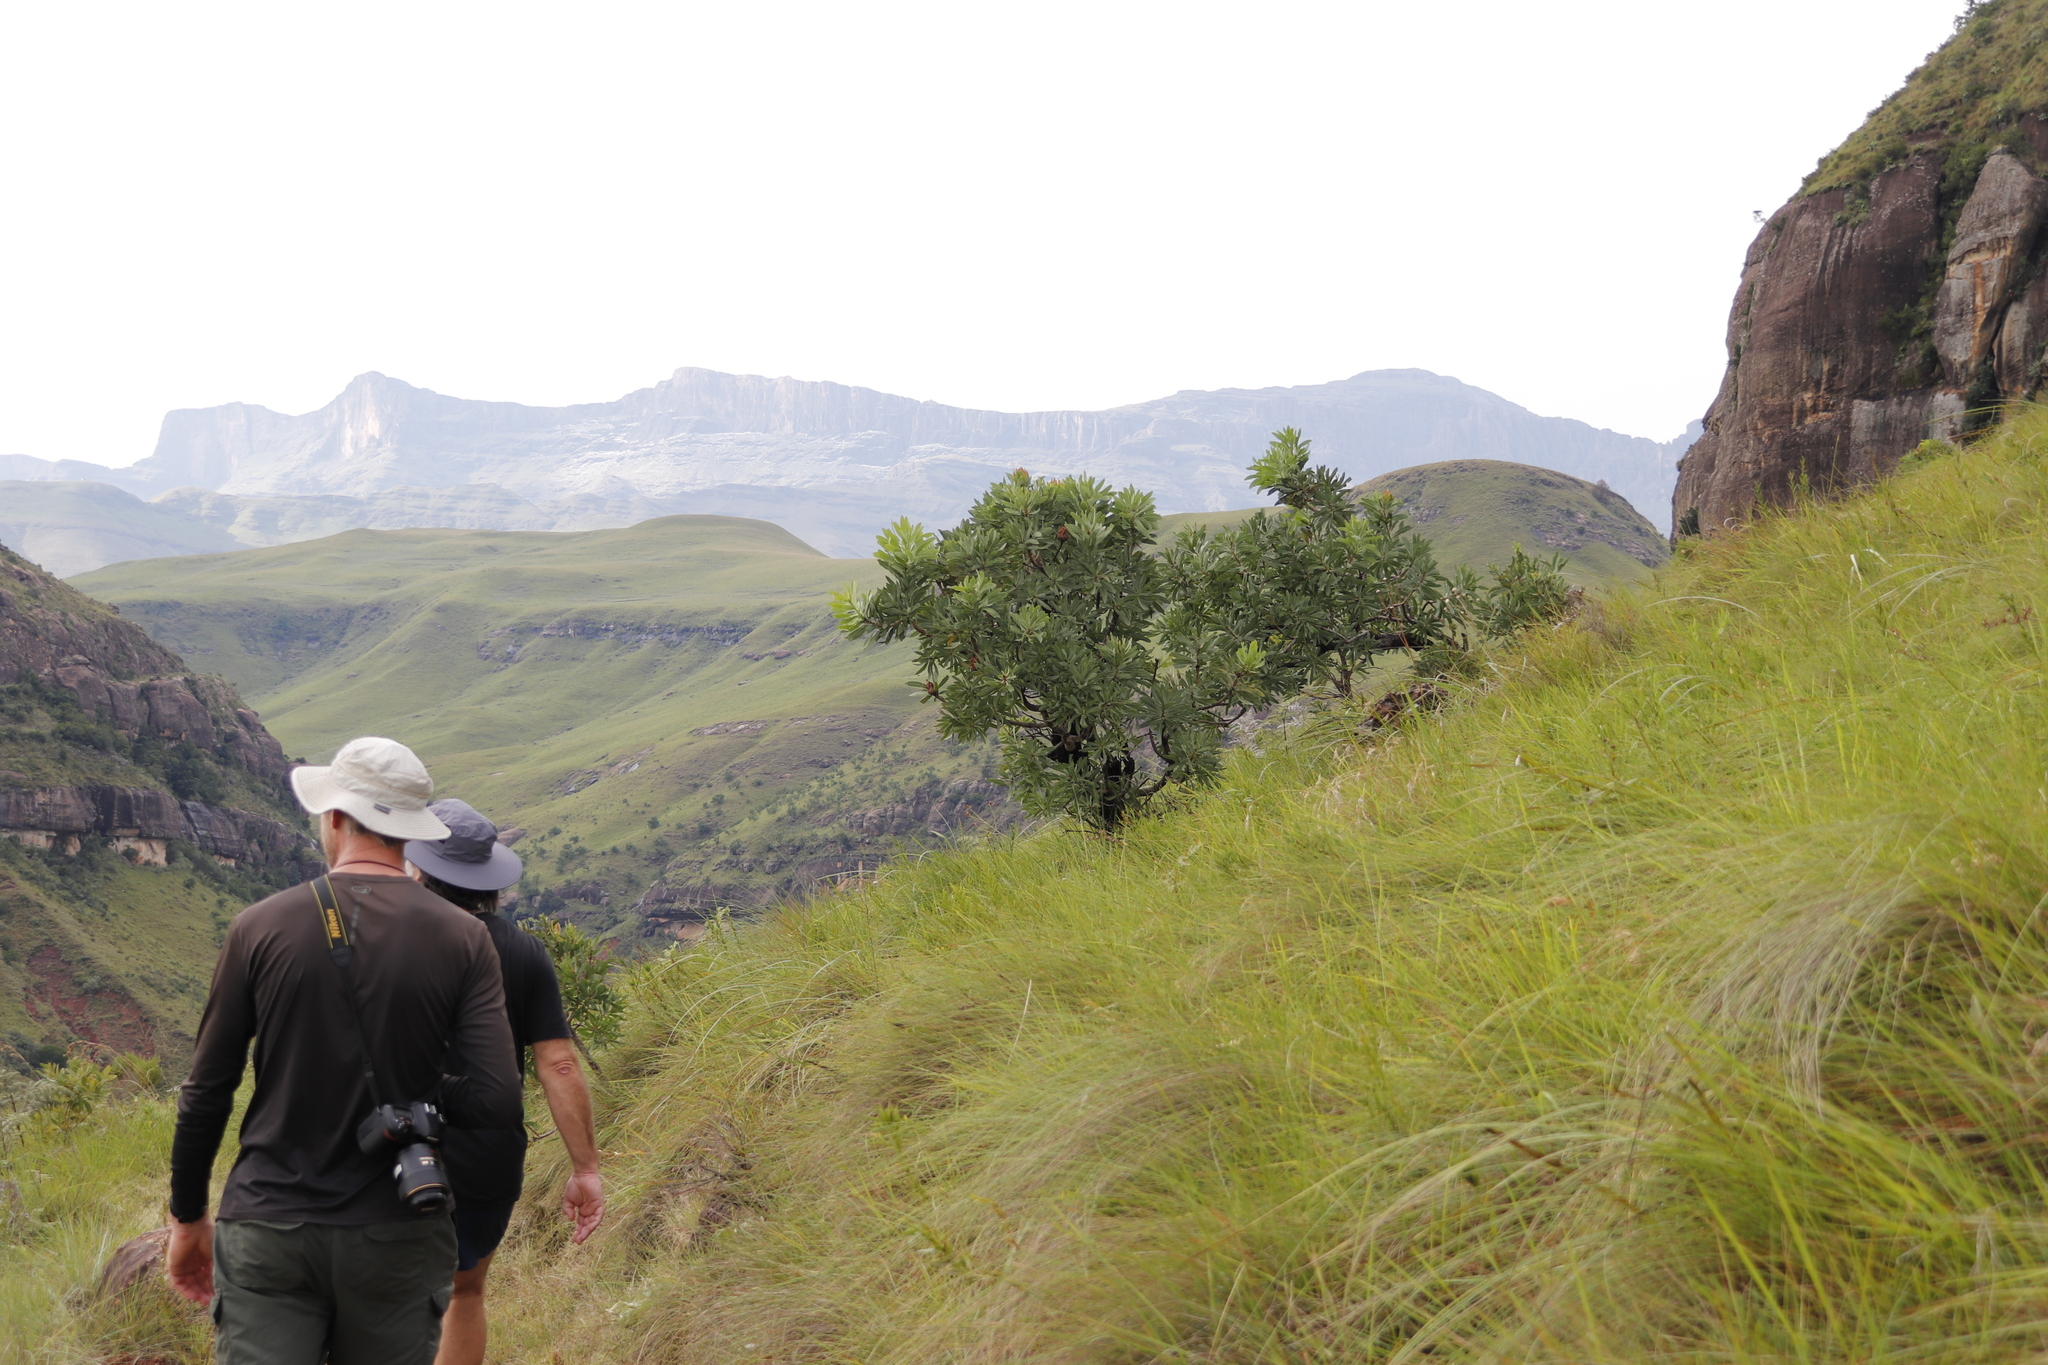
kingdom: Plantae
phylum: Tracheophyta
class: Magnoliopsida
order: Proteales
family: Proteaceae
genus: Protea
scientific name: Protea caffra
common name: Common sugarbush
